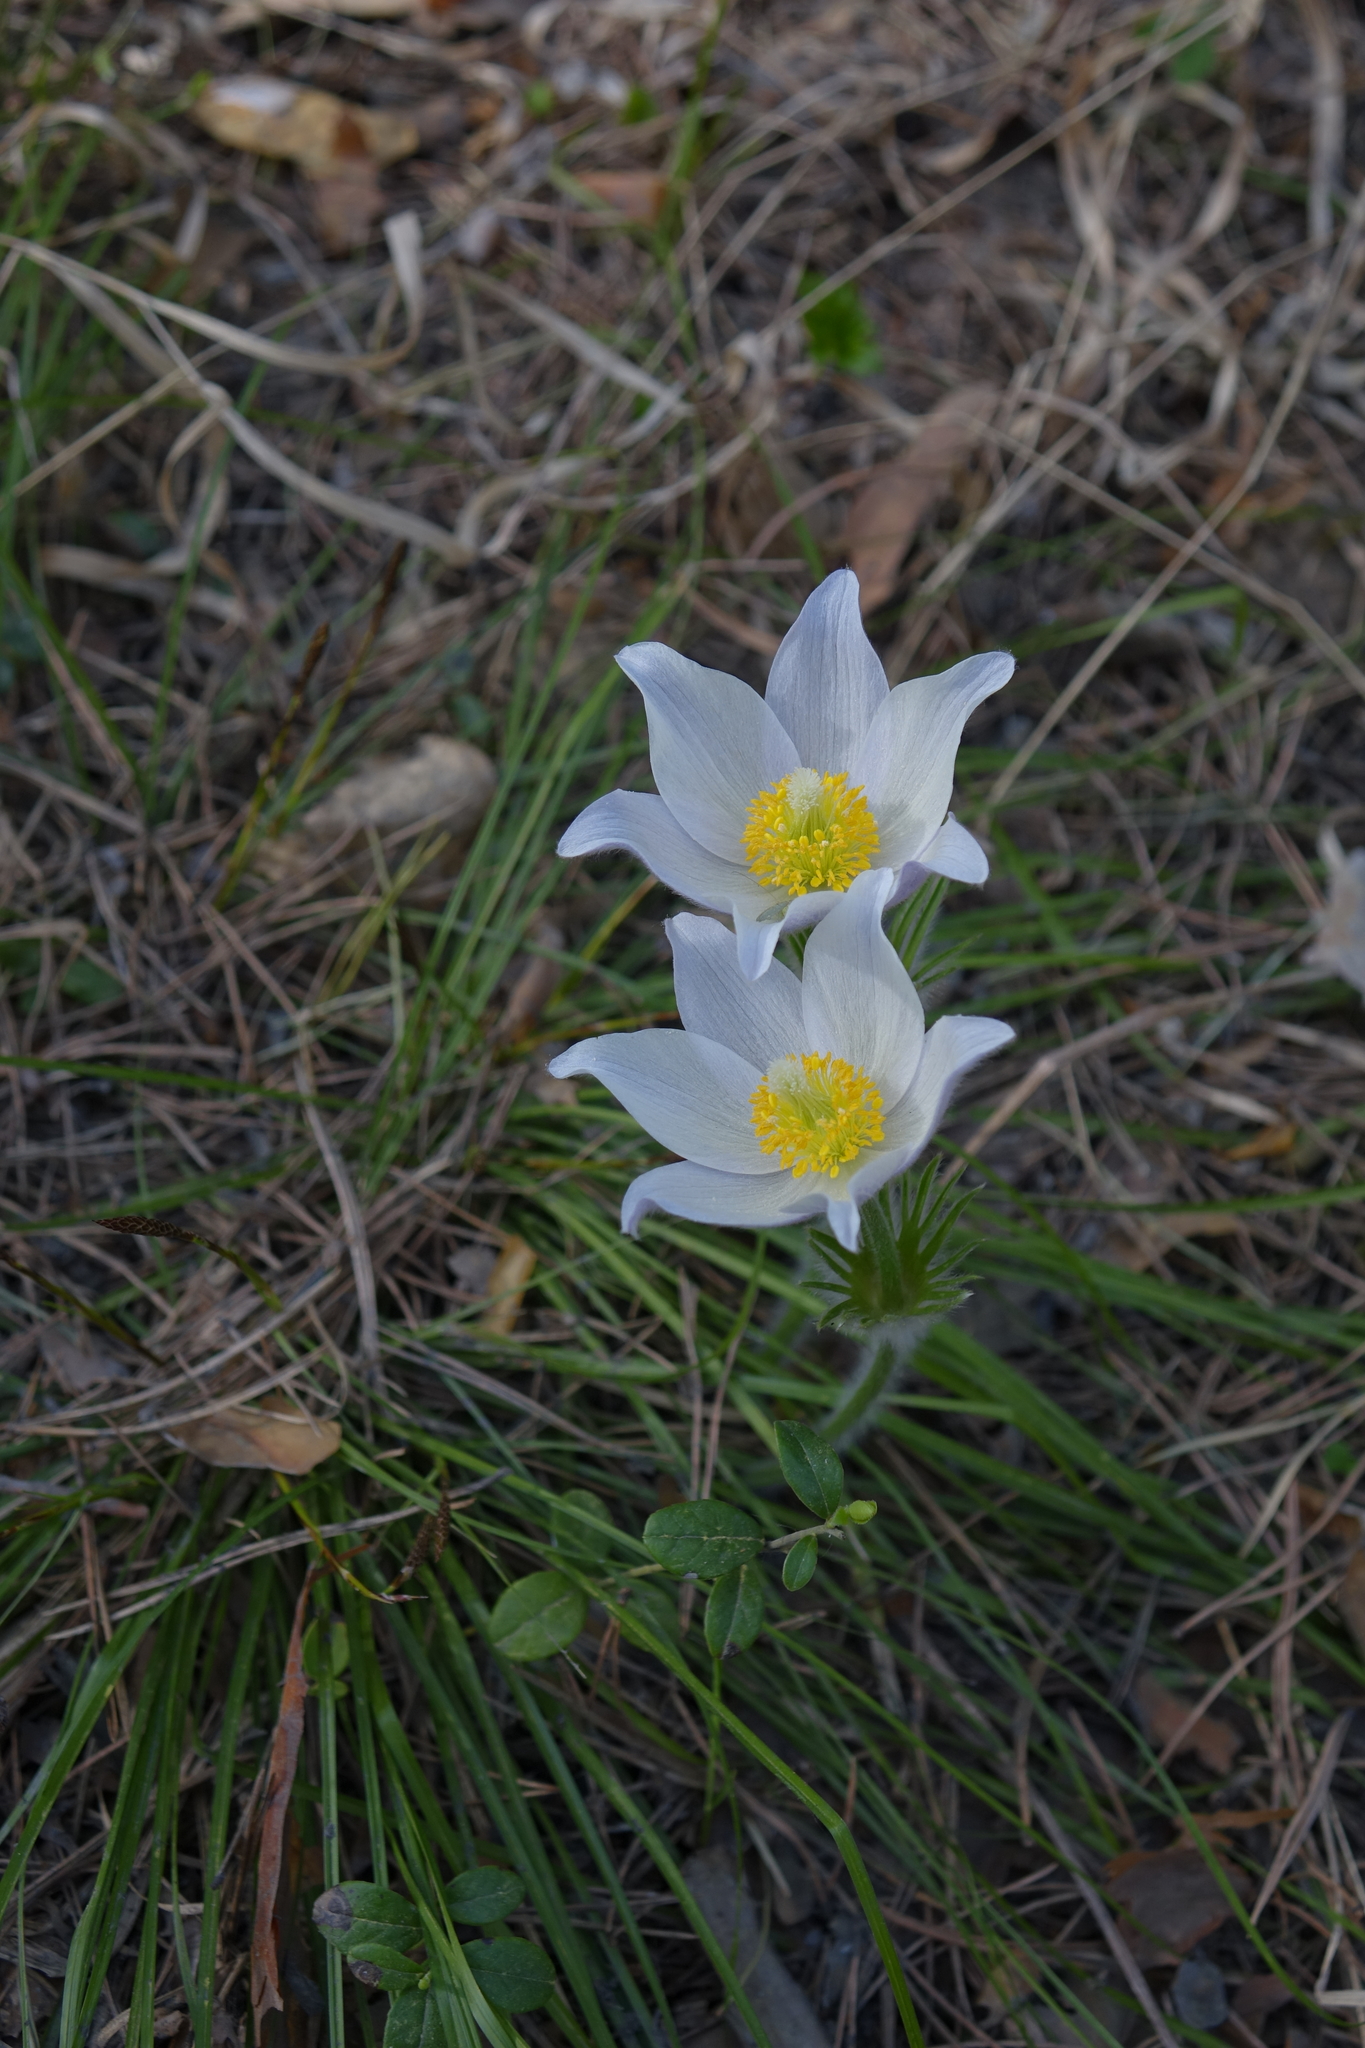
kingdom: Plantae
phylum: Tracheophyta
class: Magnoliopsida
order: Ranunculales
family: Ranunculaceae
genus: Pulsatilla
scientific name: Pulsatilla patens
